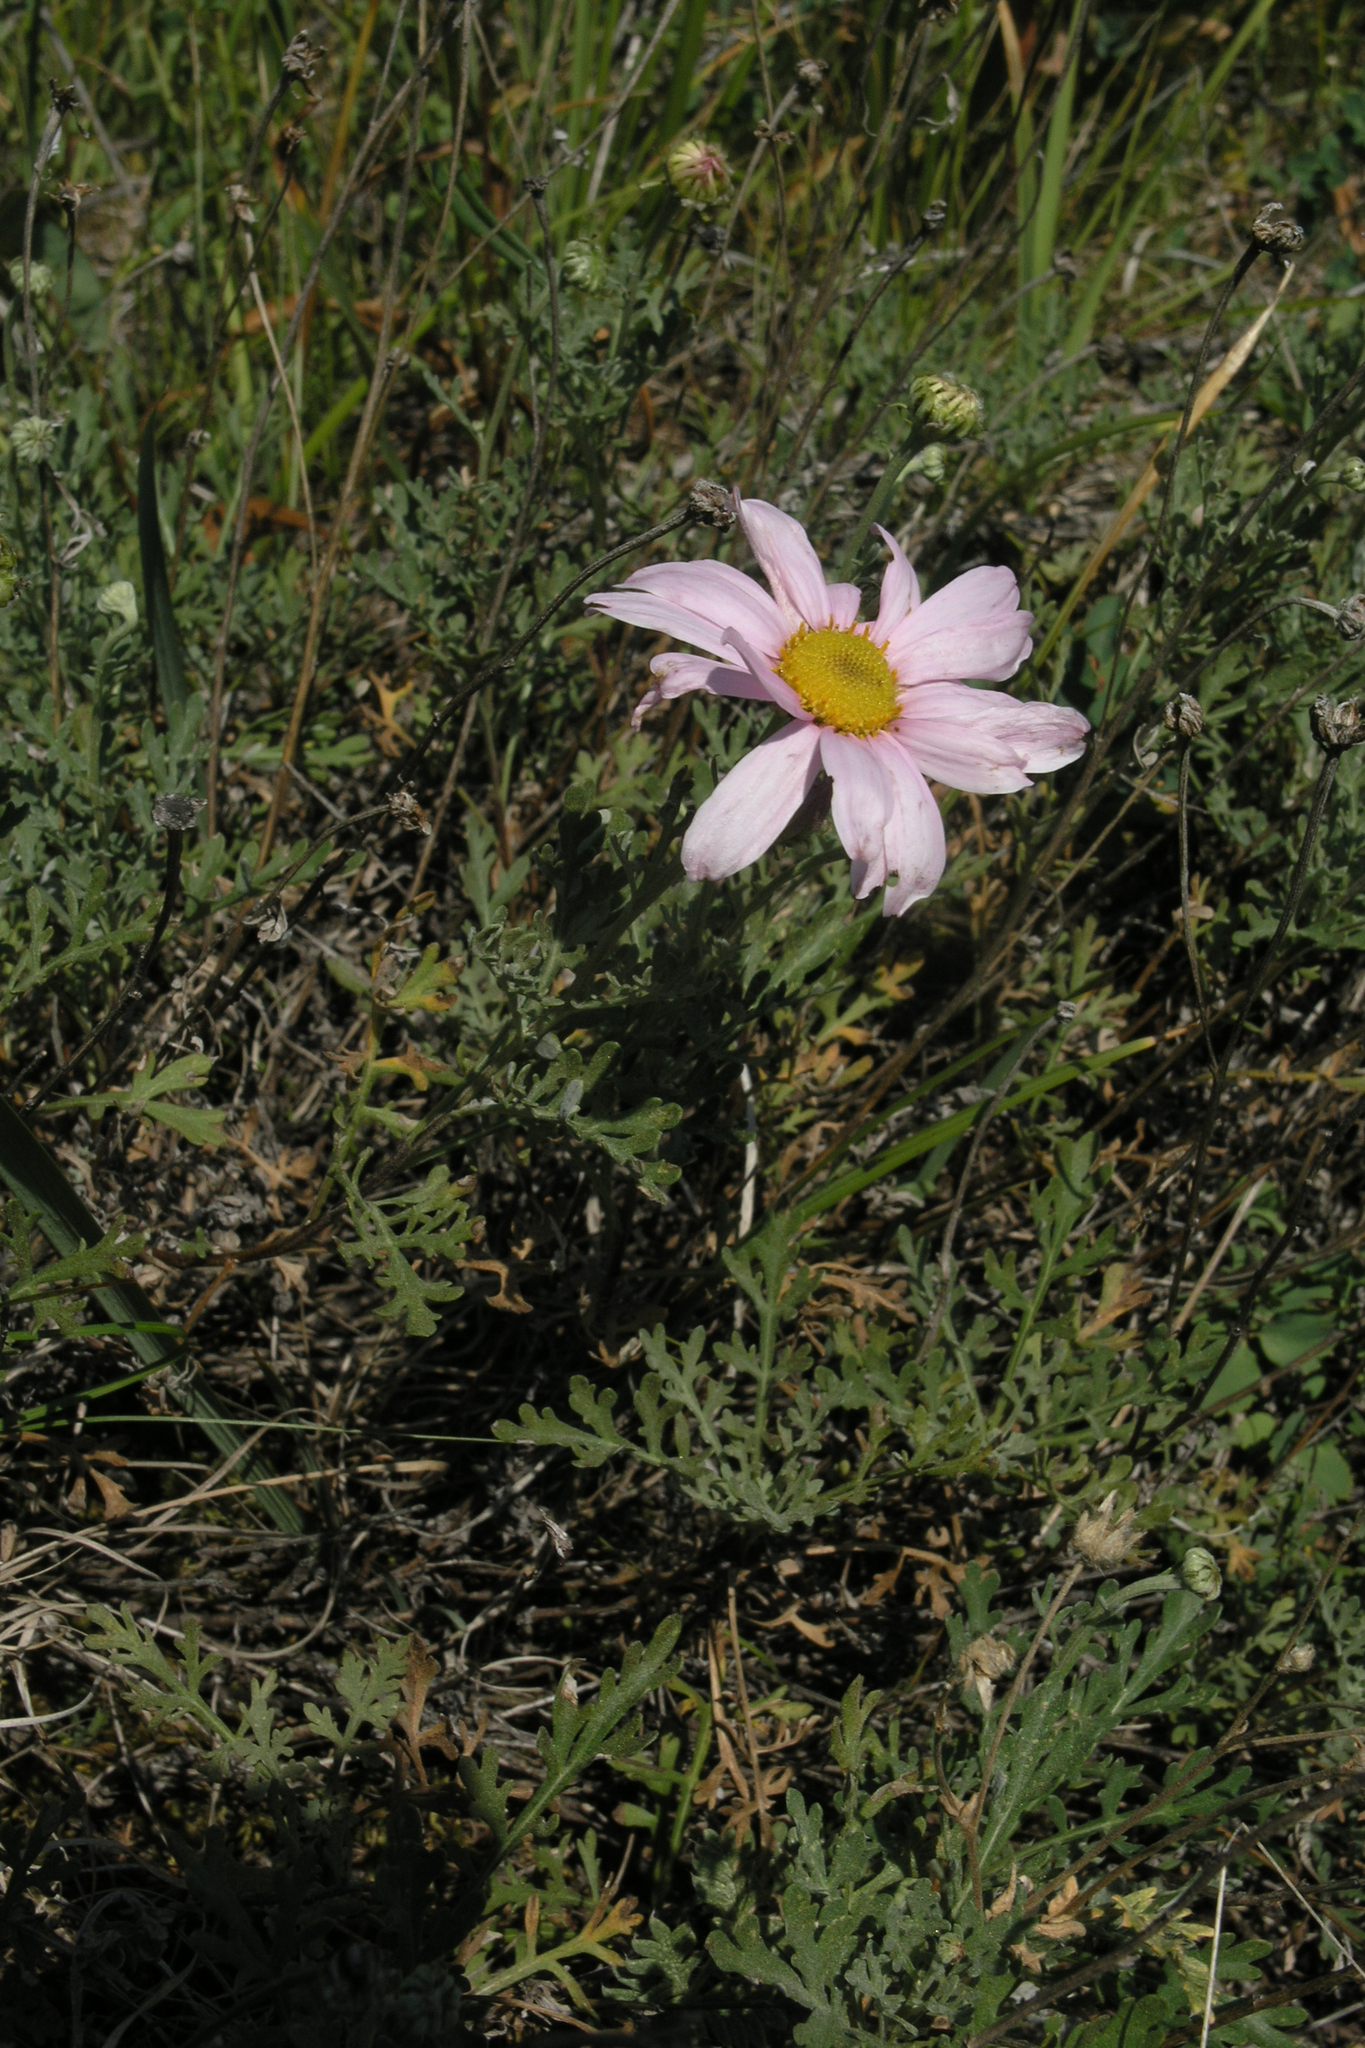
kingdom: Plantae
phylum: Tracheophyta
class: Magnoliopsida
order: Asterales
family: Asteraceae
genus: Chrysanthemum
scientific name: Chrysanthemum sinuatum
